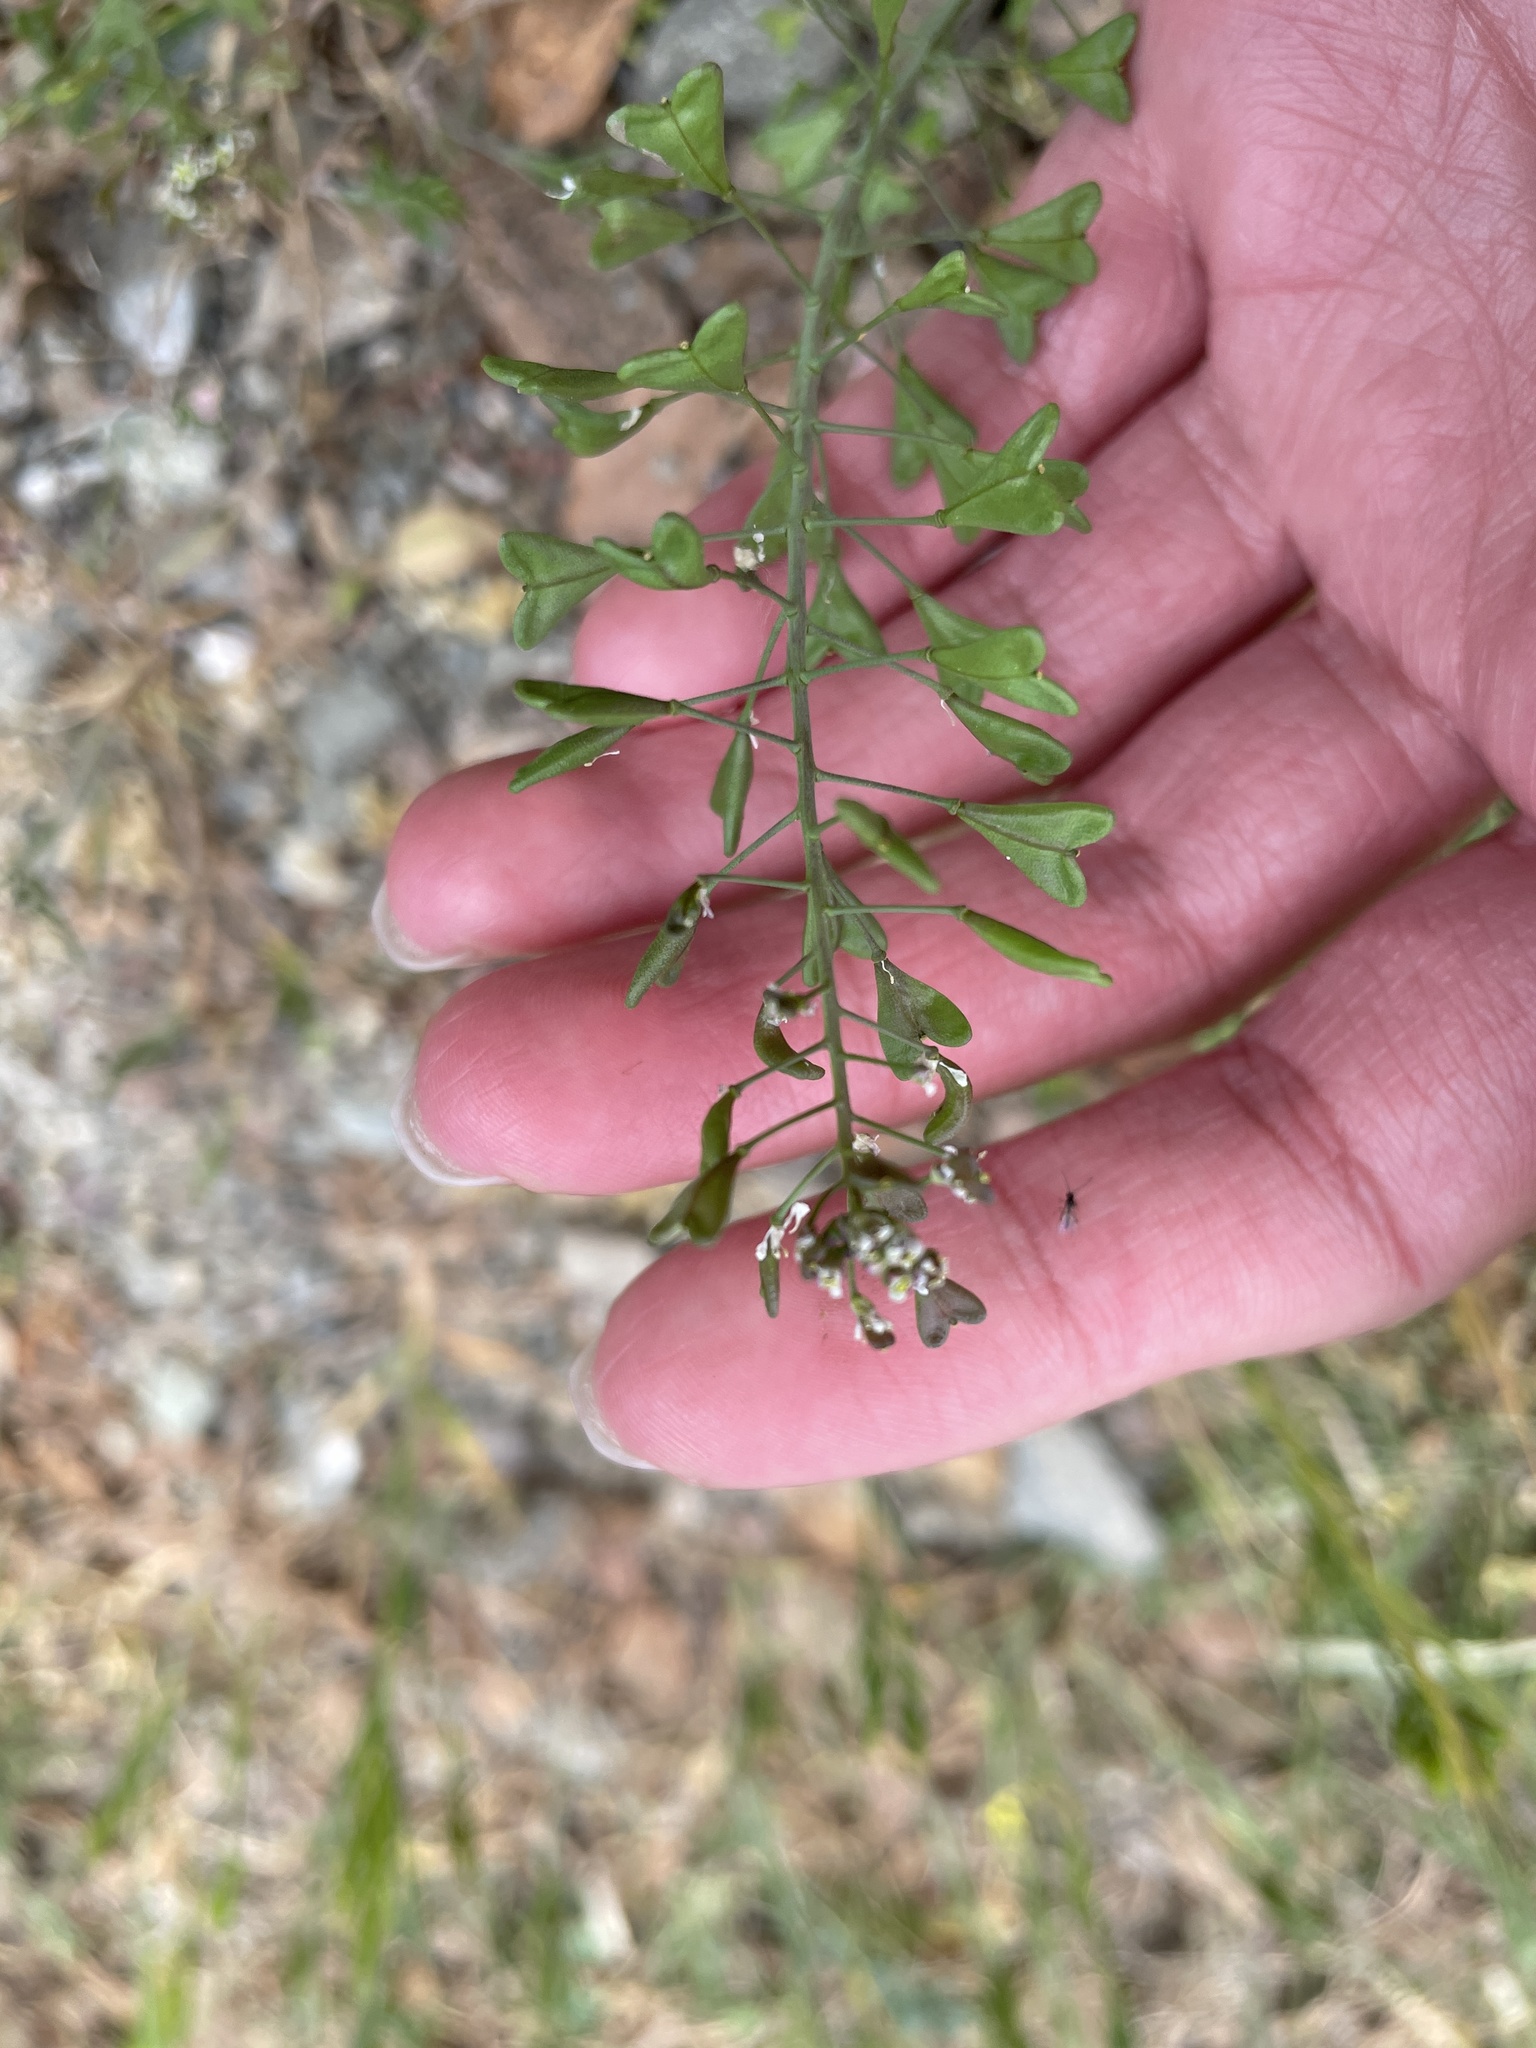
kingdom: Plantae
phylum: Tracheophyta
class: Magnoliopsida
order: Brassicales
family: Brassicaceae
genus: Capsella
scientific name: Capsella bursa-pastoris
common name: Shepherd's purse
